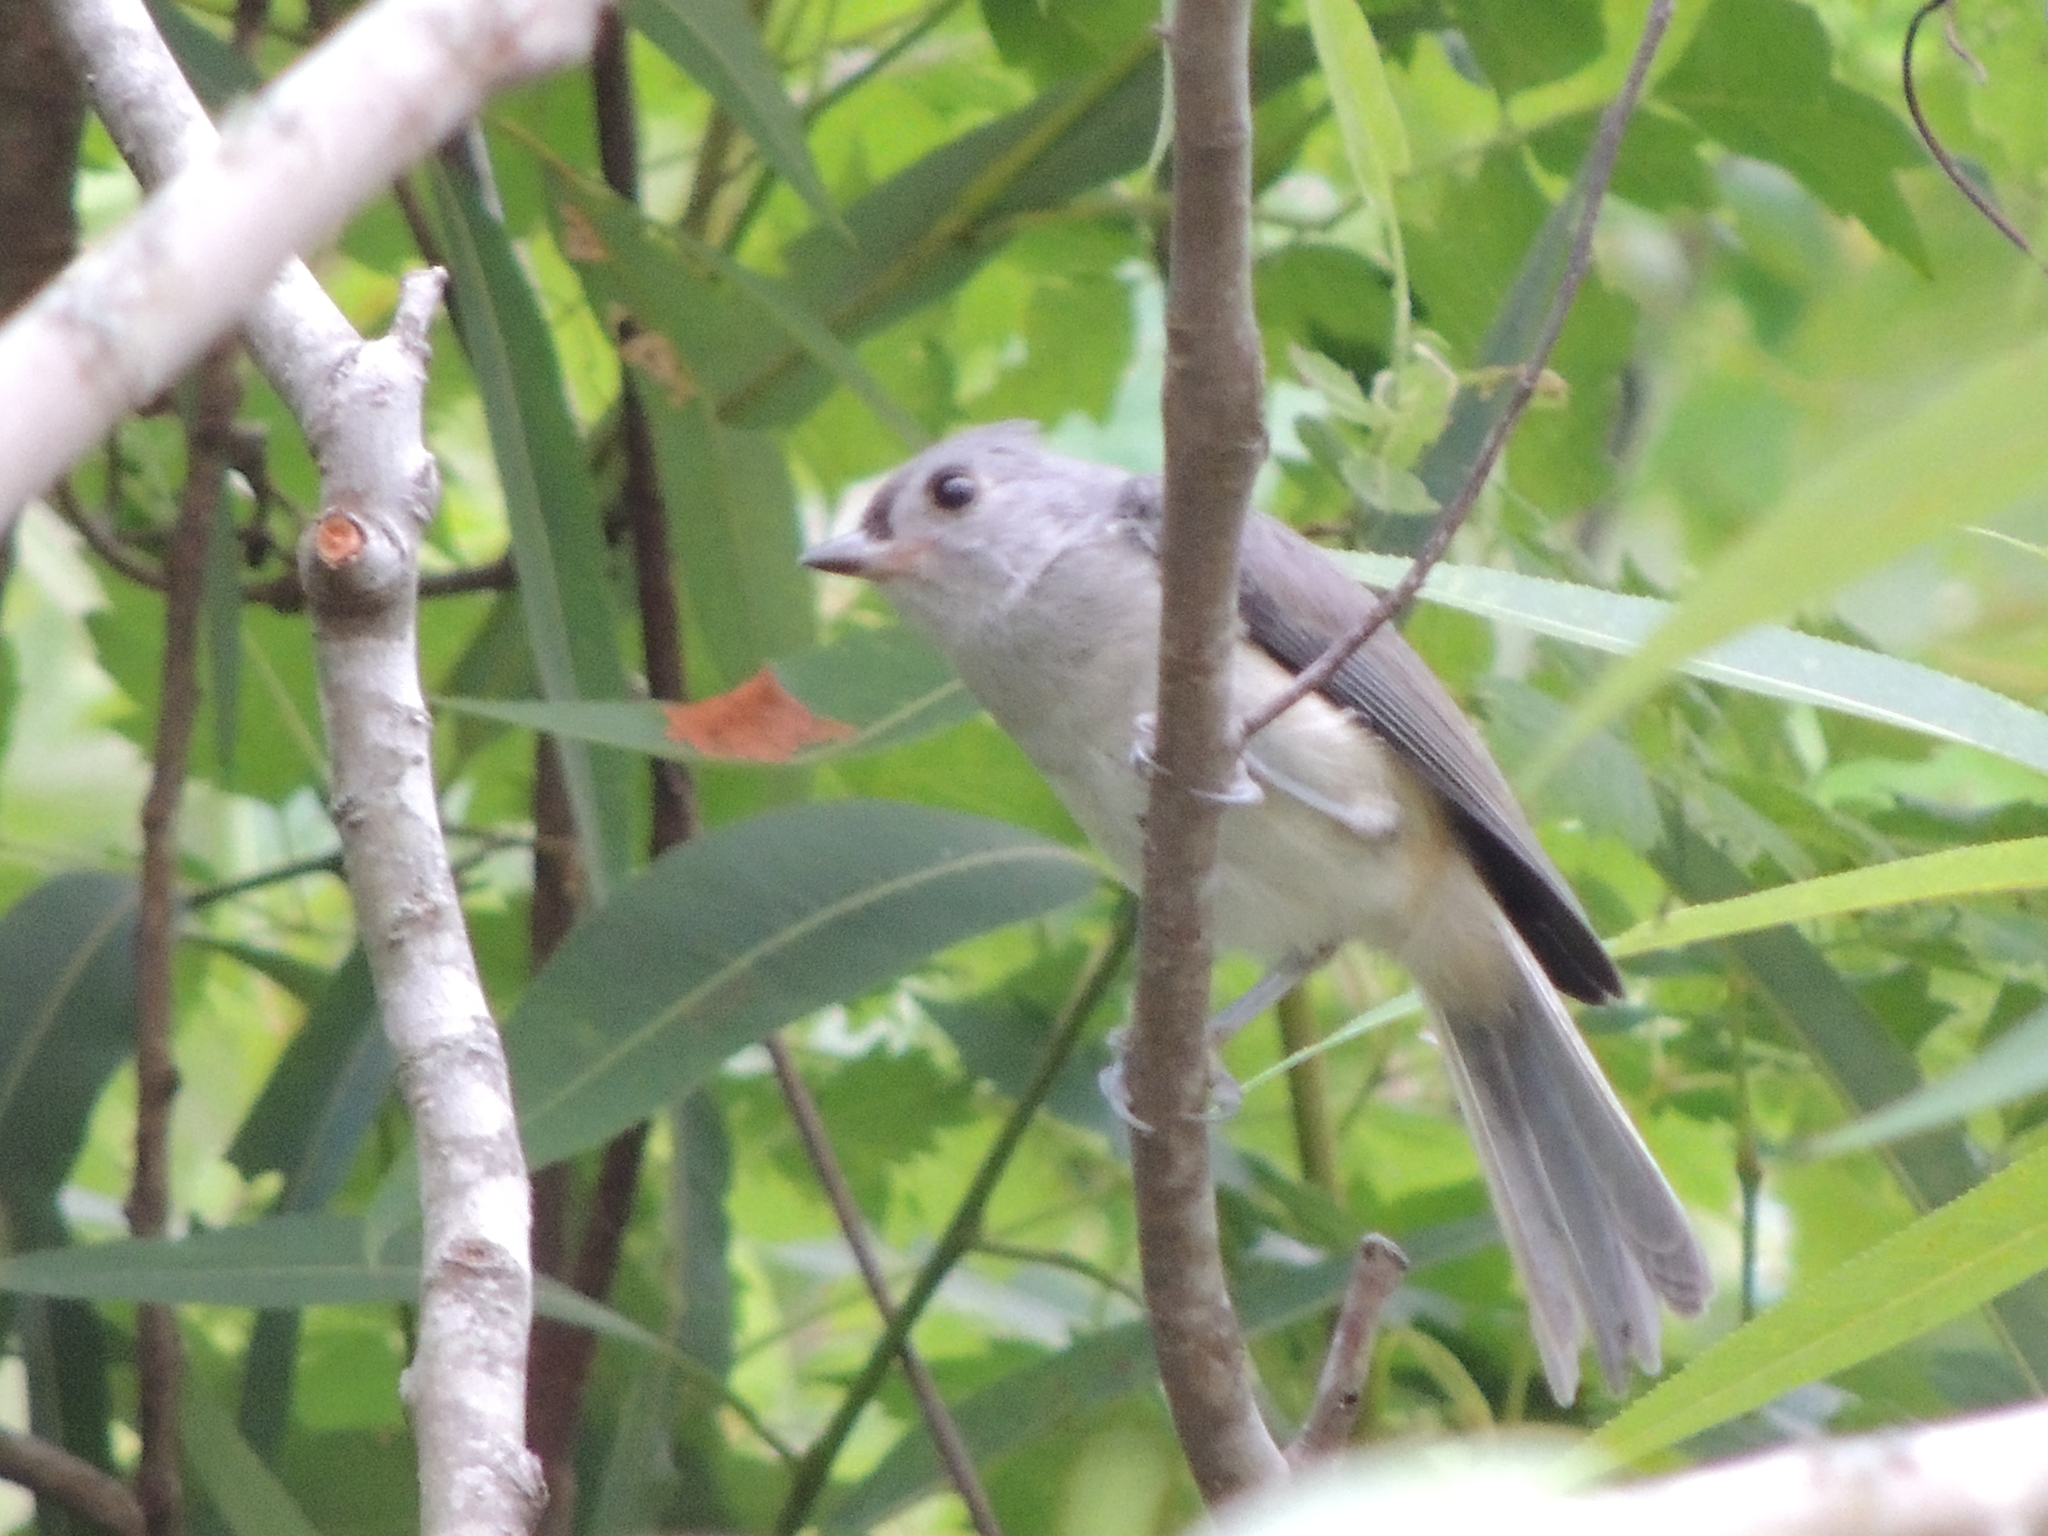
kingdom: Animalia
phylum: Chordata
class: Aves
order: Passeriformes
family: Paridae
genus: Baeolophus
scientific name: Baeolophus bicolor
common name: Tufted titmouse
